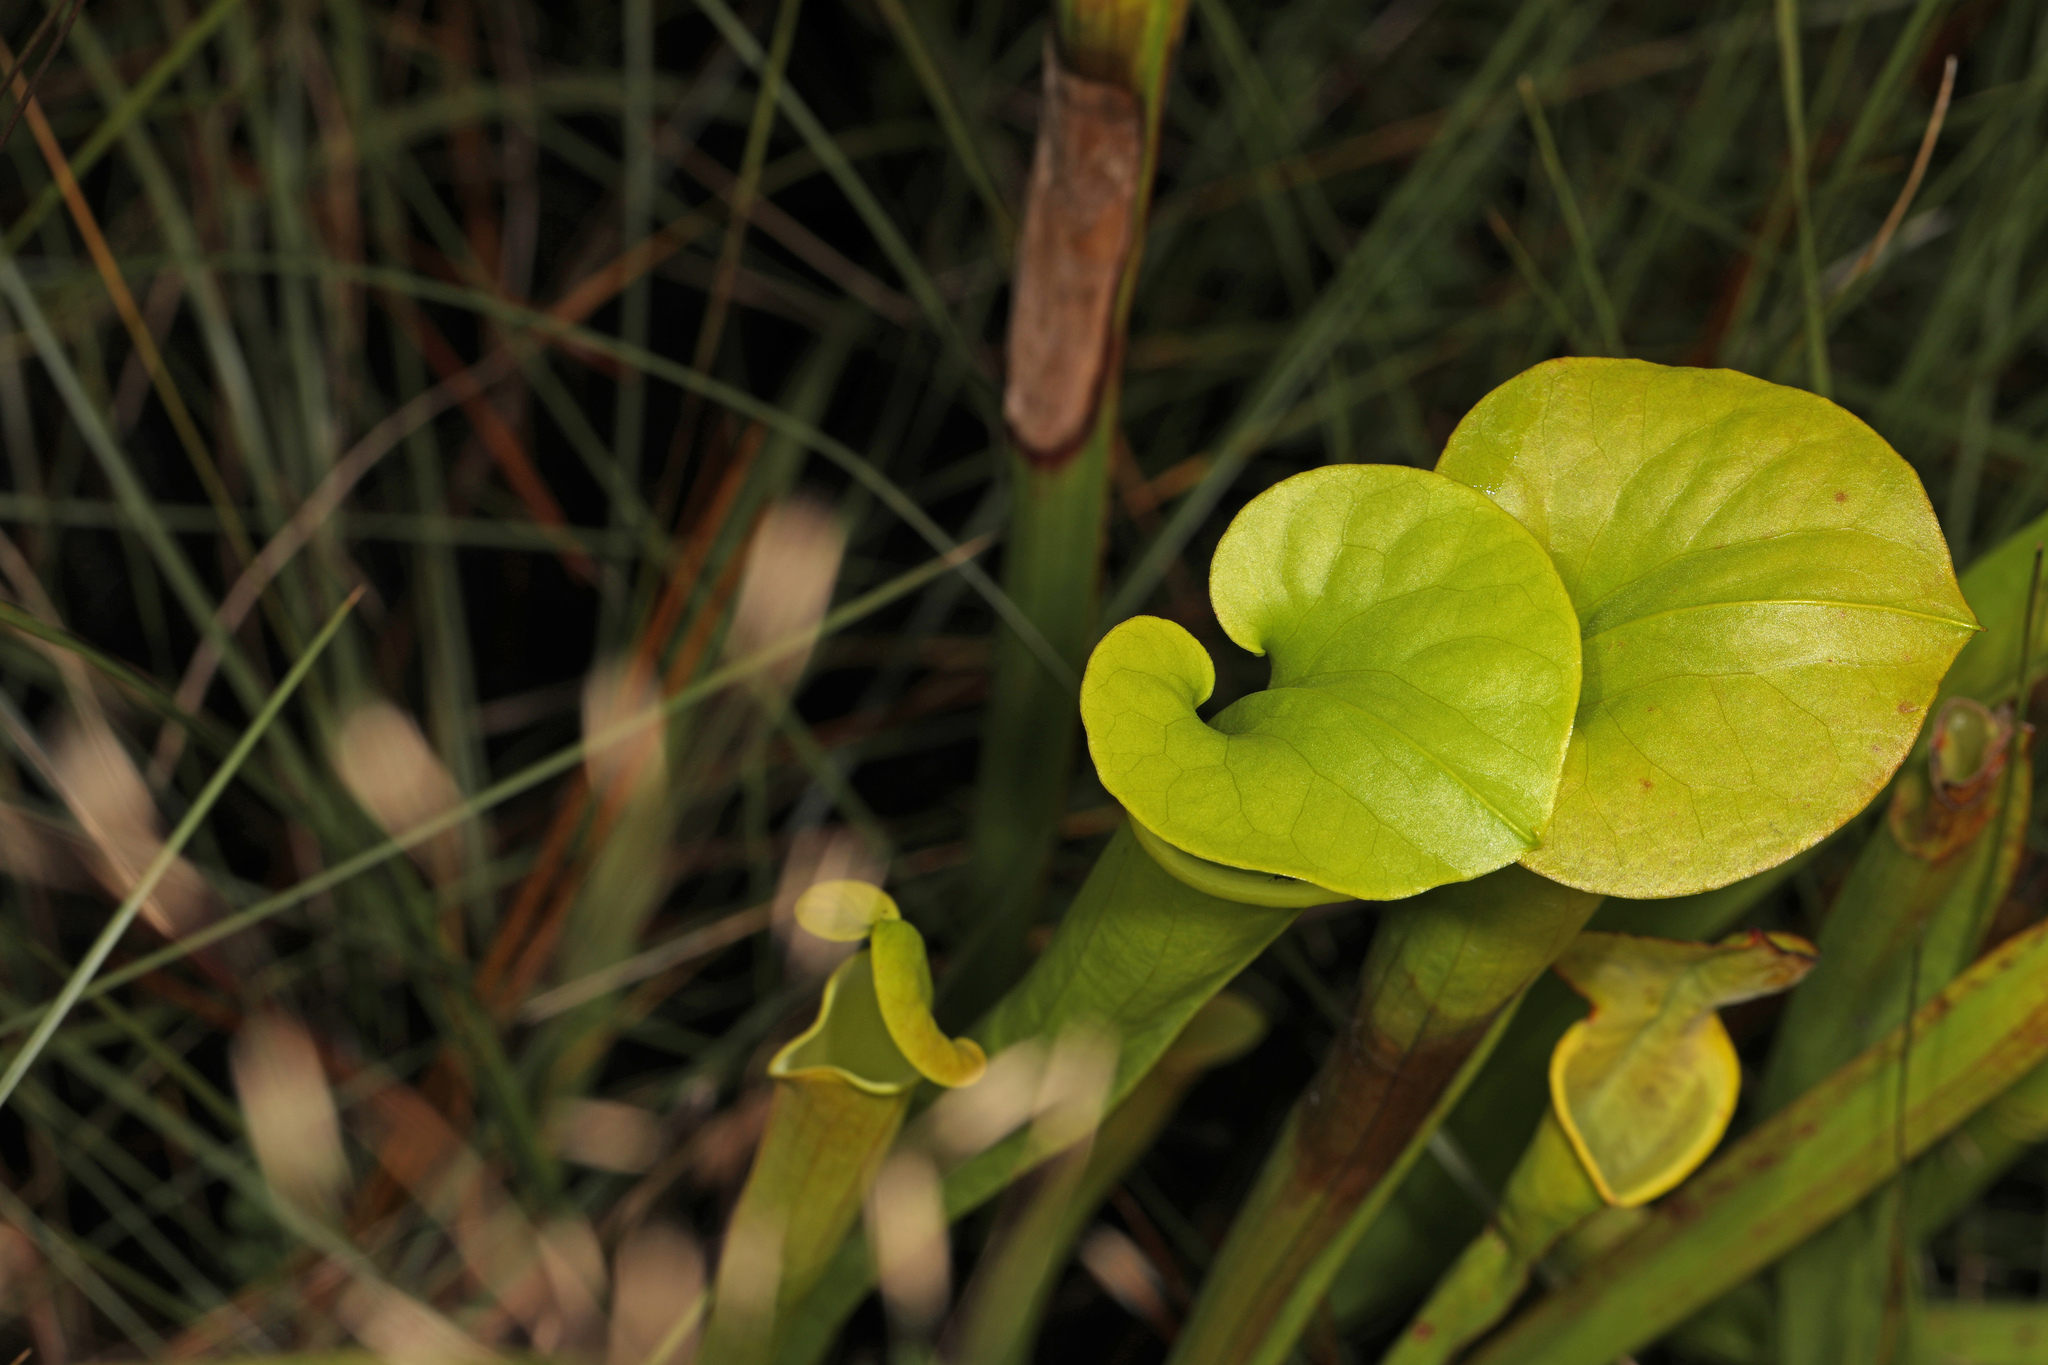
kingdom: Plantae
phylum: Tracheophyta
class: Magnoliopsida
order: Ericales
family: Sarraceniaceae
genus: Sarracenia
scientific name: Sarracenia flava
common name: Trumpets
